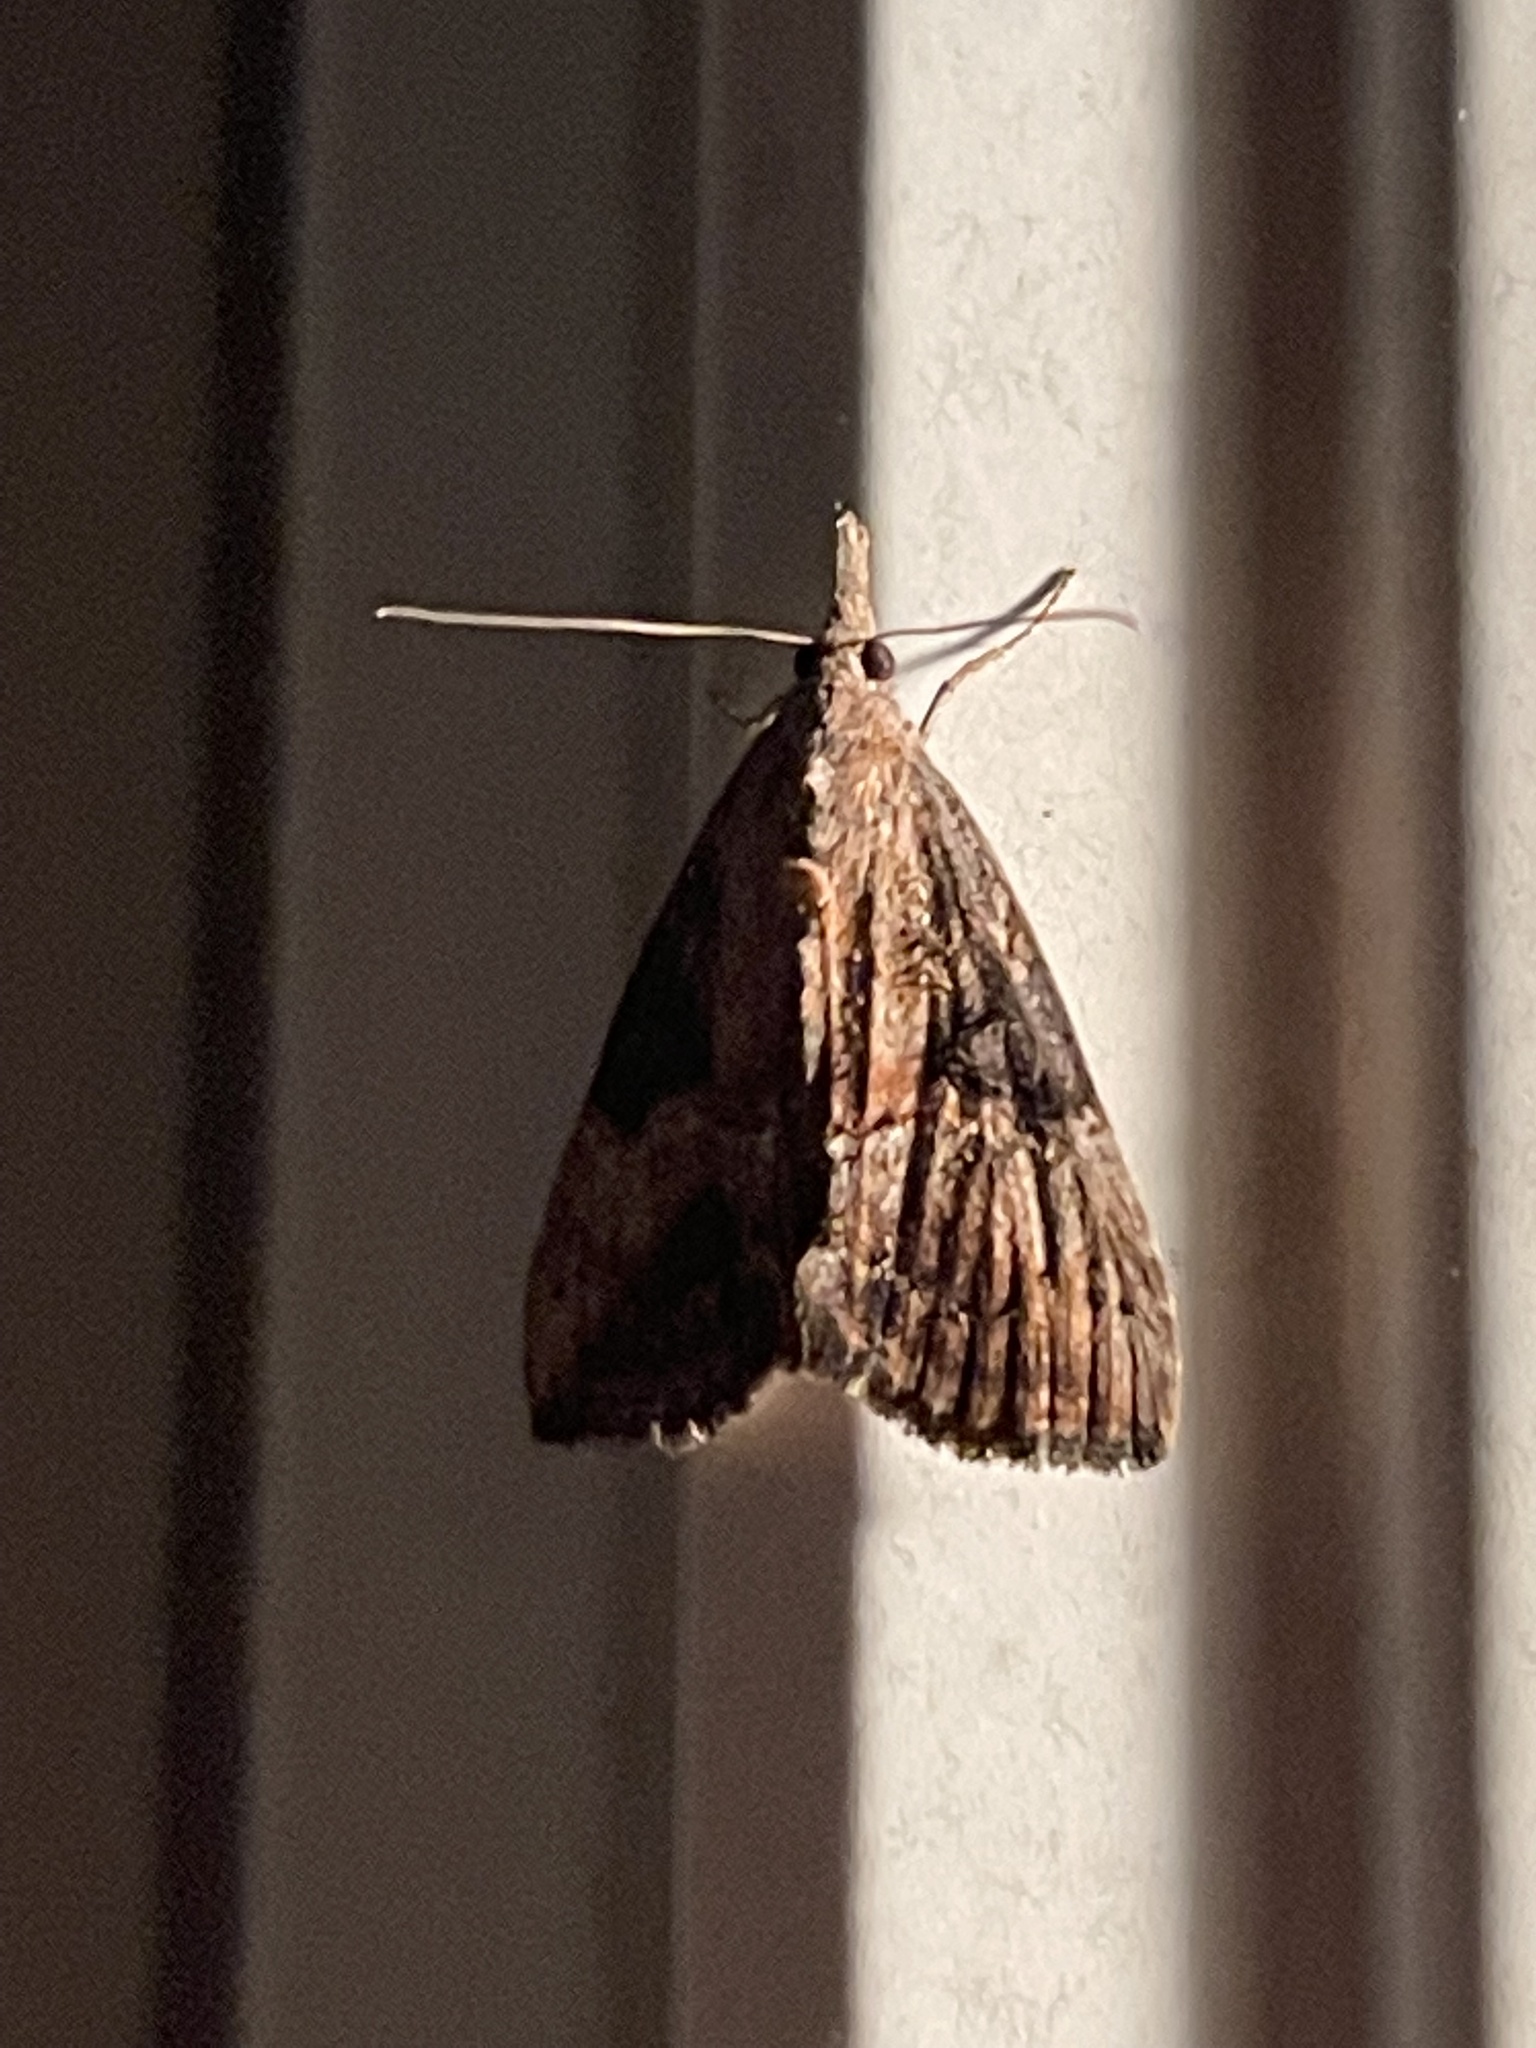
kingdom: Animalia
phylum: Arthropoda
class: Insecta
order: Lepidoptera
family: Erebidae
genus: Hypena
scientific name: Hypena scabra
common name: Green cloverworm
